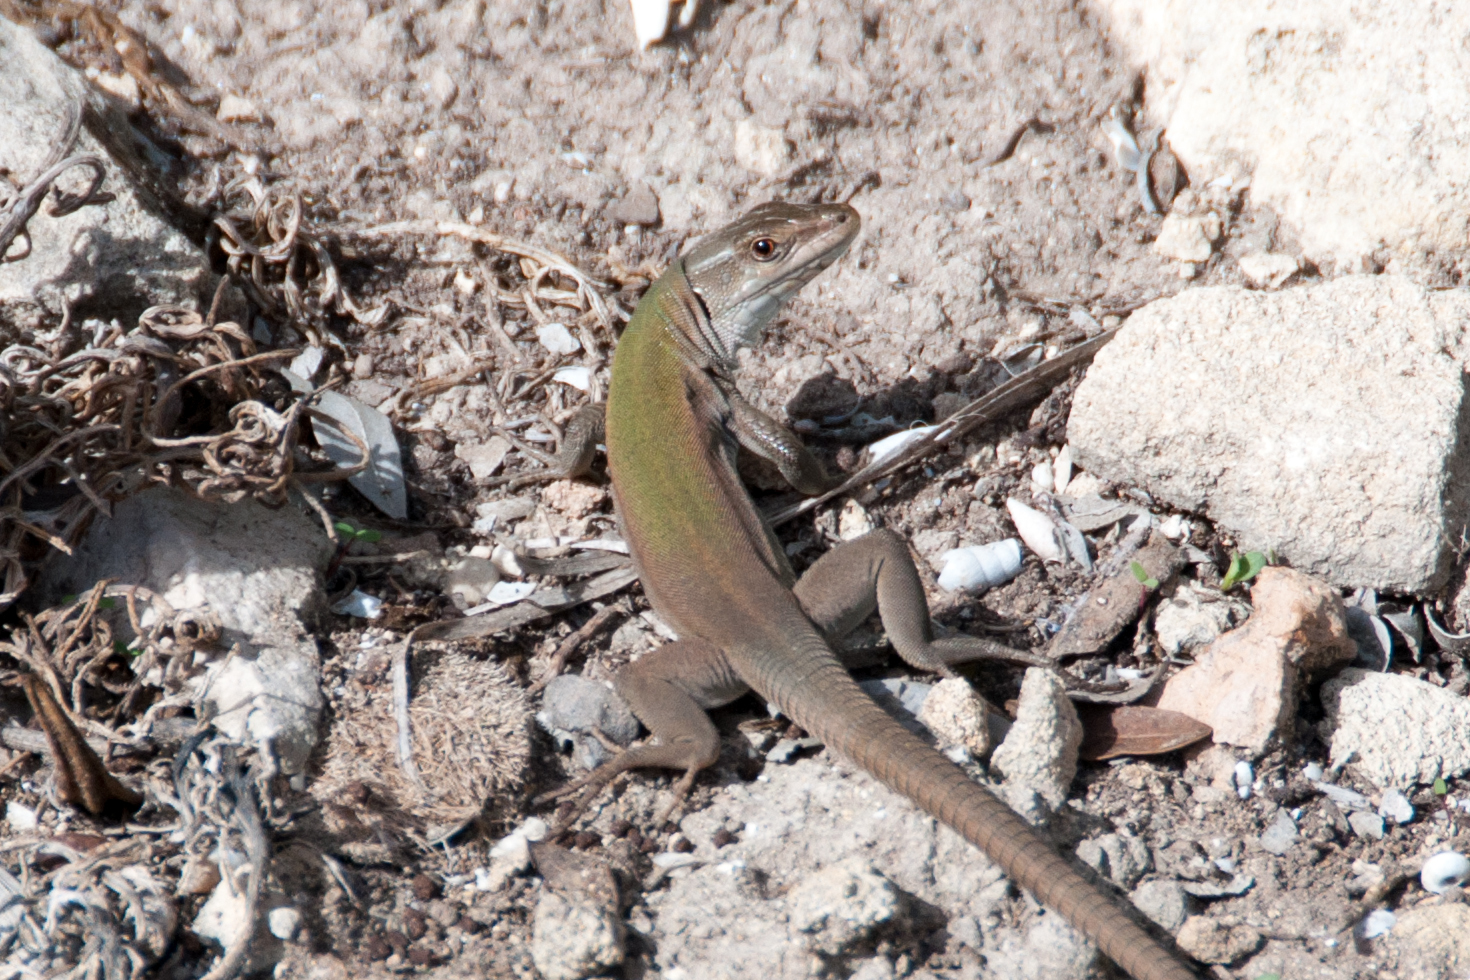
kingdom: Animalia
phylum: Chordata
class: Squamata
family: Lacertidae
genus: Podarcis
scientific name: Podarcis siculus
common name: Italian wall lizard
